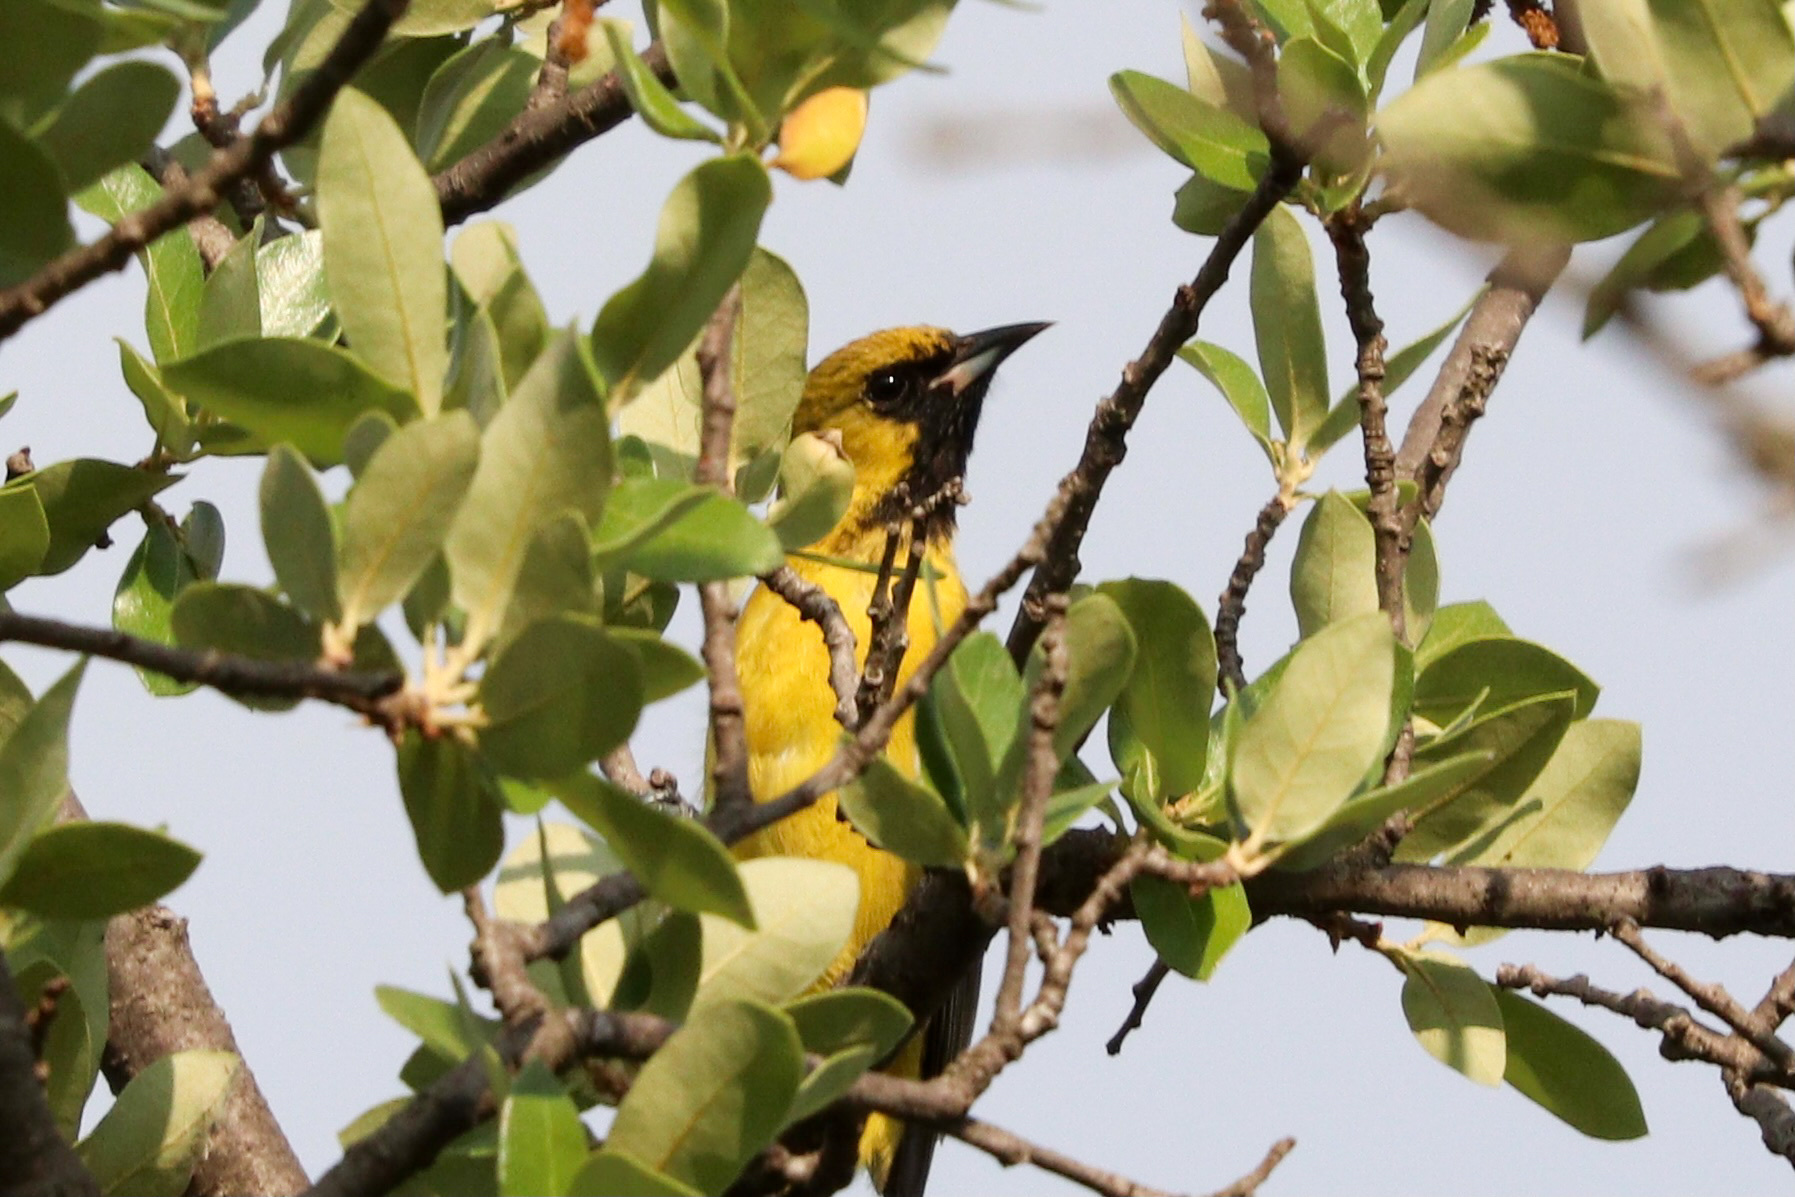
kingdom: Animalia
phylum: Chordata
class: Aves
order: Passeriformes
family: Icteridae
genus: Icterus
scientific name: Icterus spurius
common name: Orchard oriole
